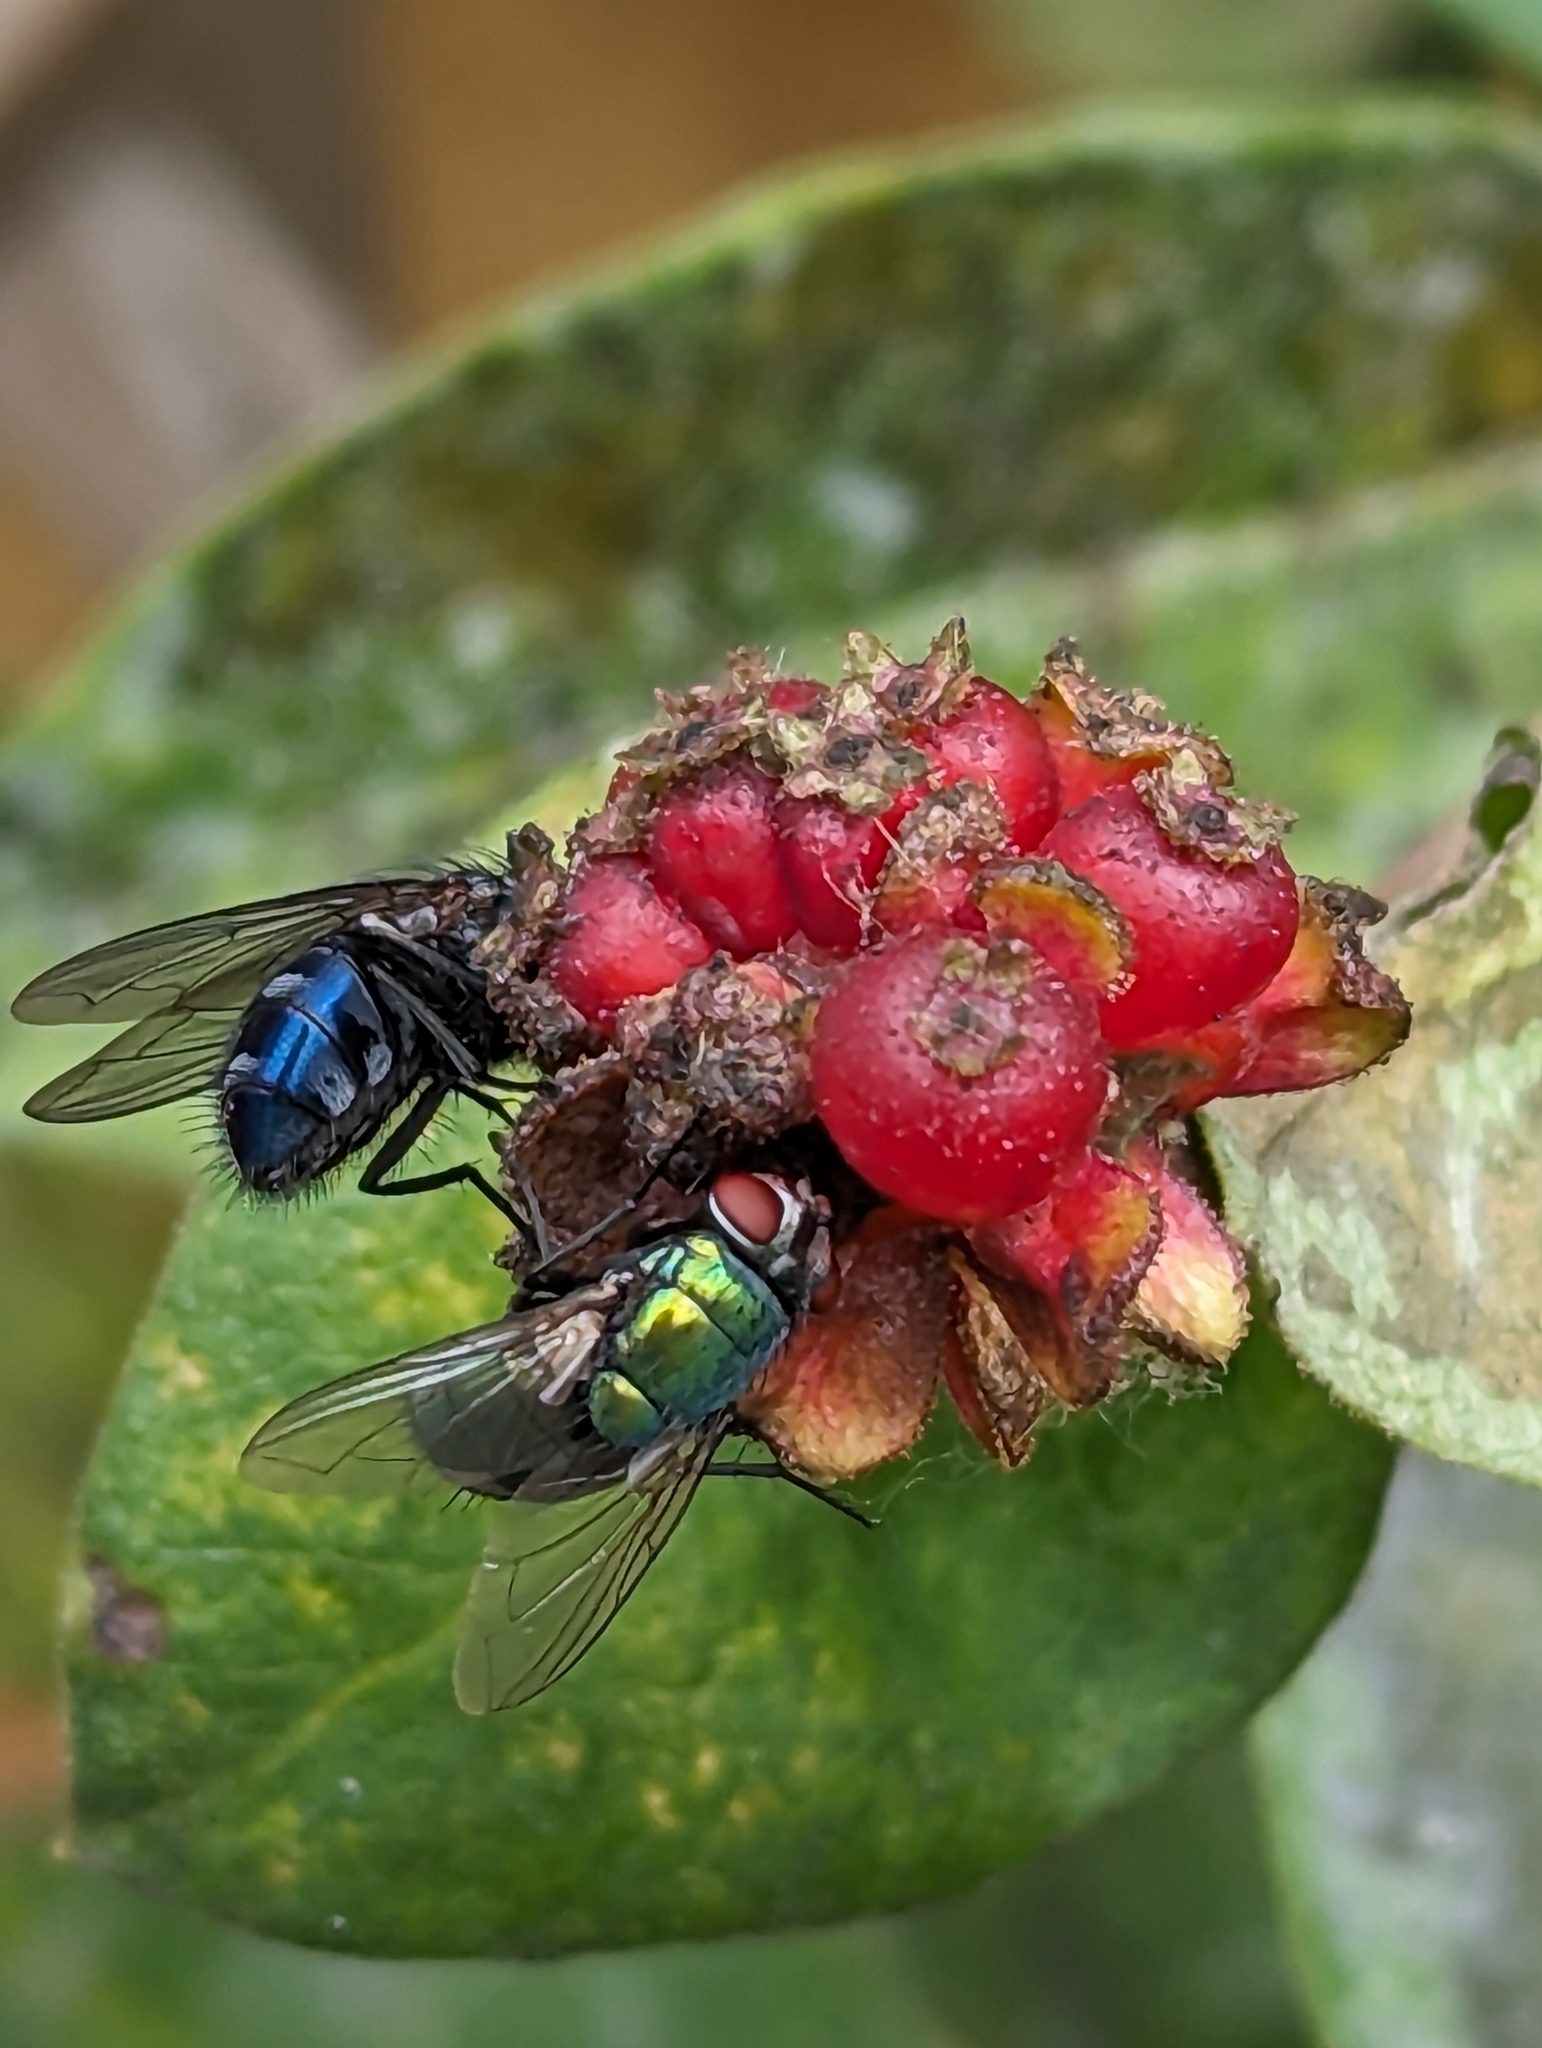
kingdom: Animalia
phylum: Arthropoda
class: Insecta
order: Diptera
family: Calliphoridae
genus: Lucilia
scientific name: Lucilia
